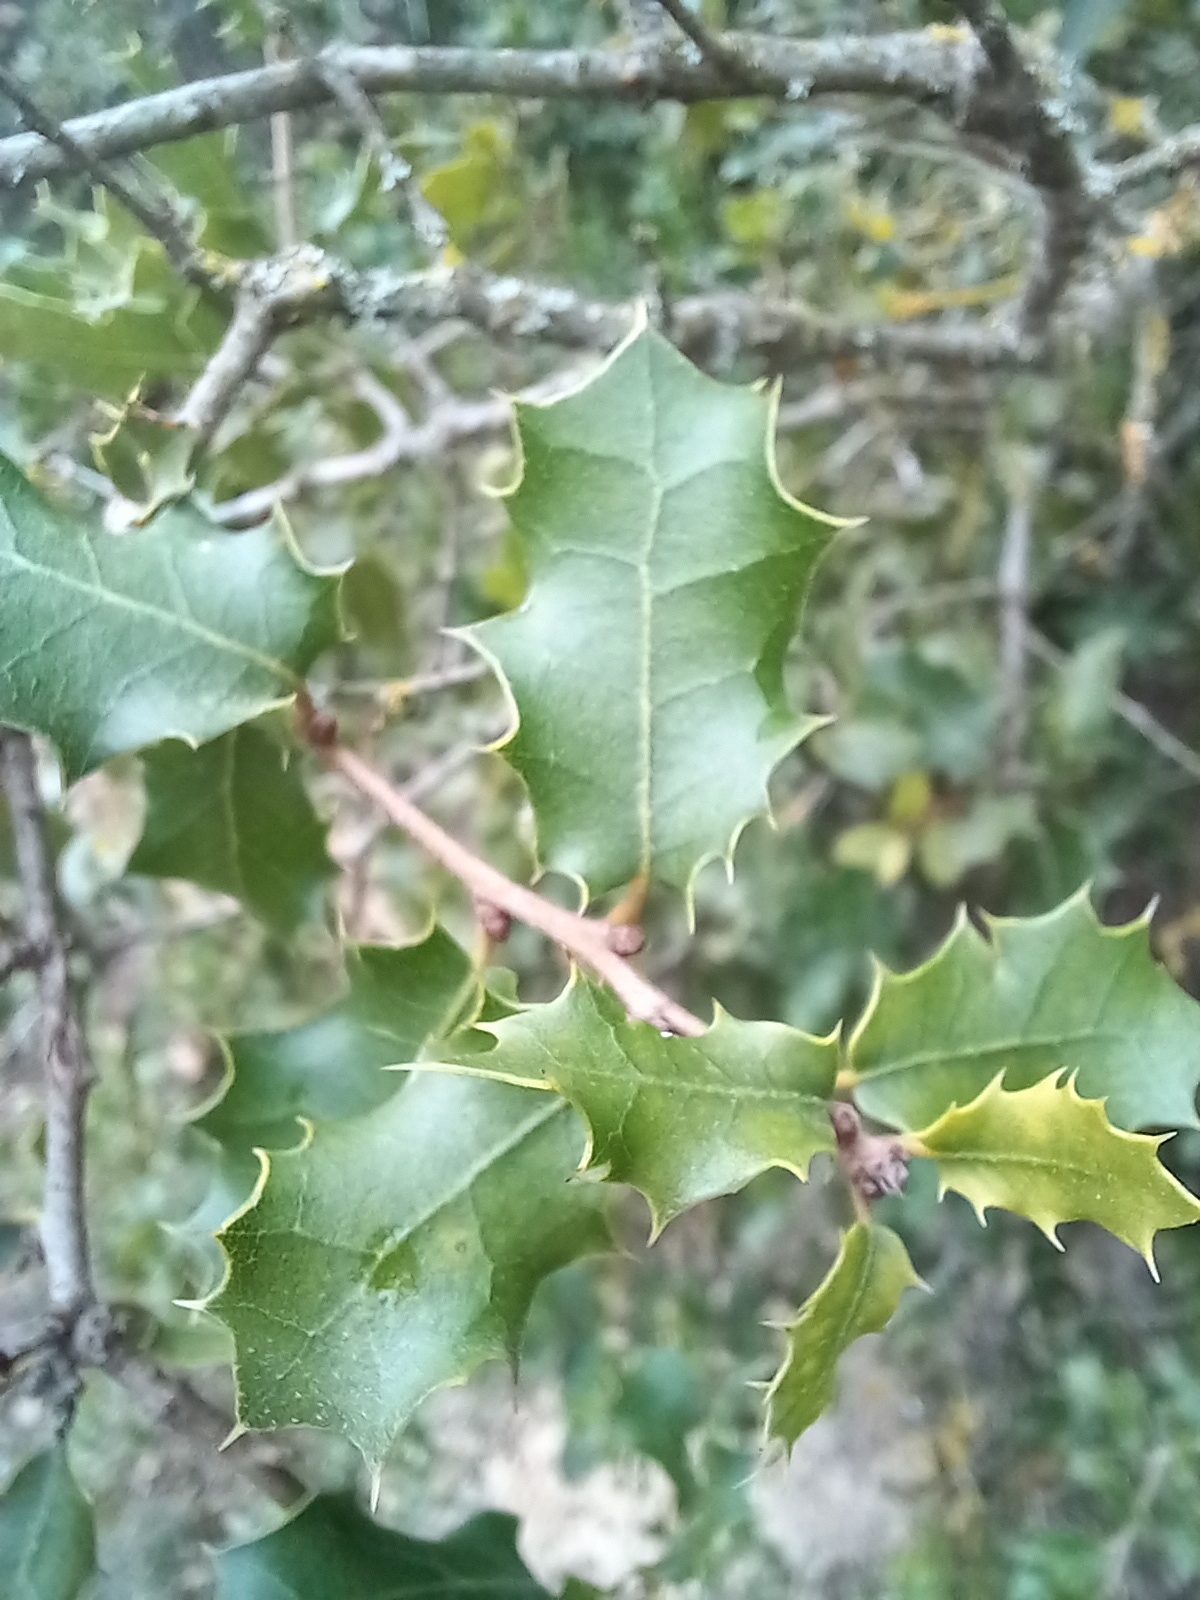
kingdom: Plantae
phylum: Tracheophyta
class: Magnoliopsida
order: Fagales
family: Fagaceae
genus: Quercus
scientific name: Quercus coccifera
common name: Kermes oak
